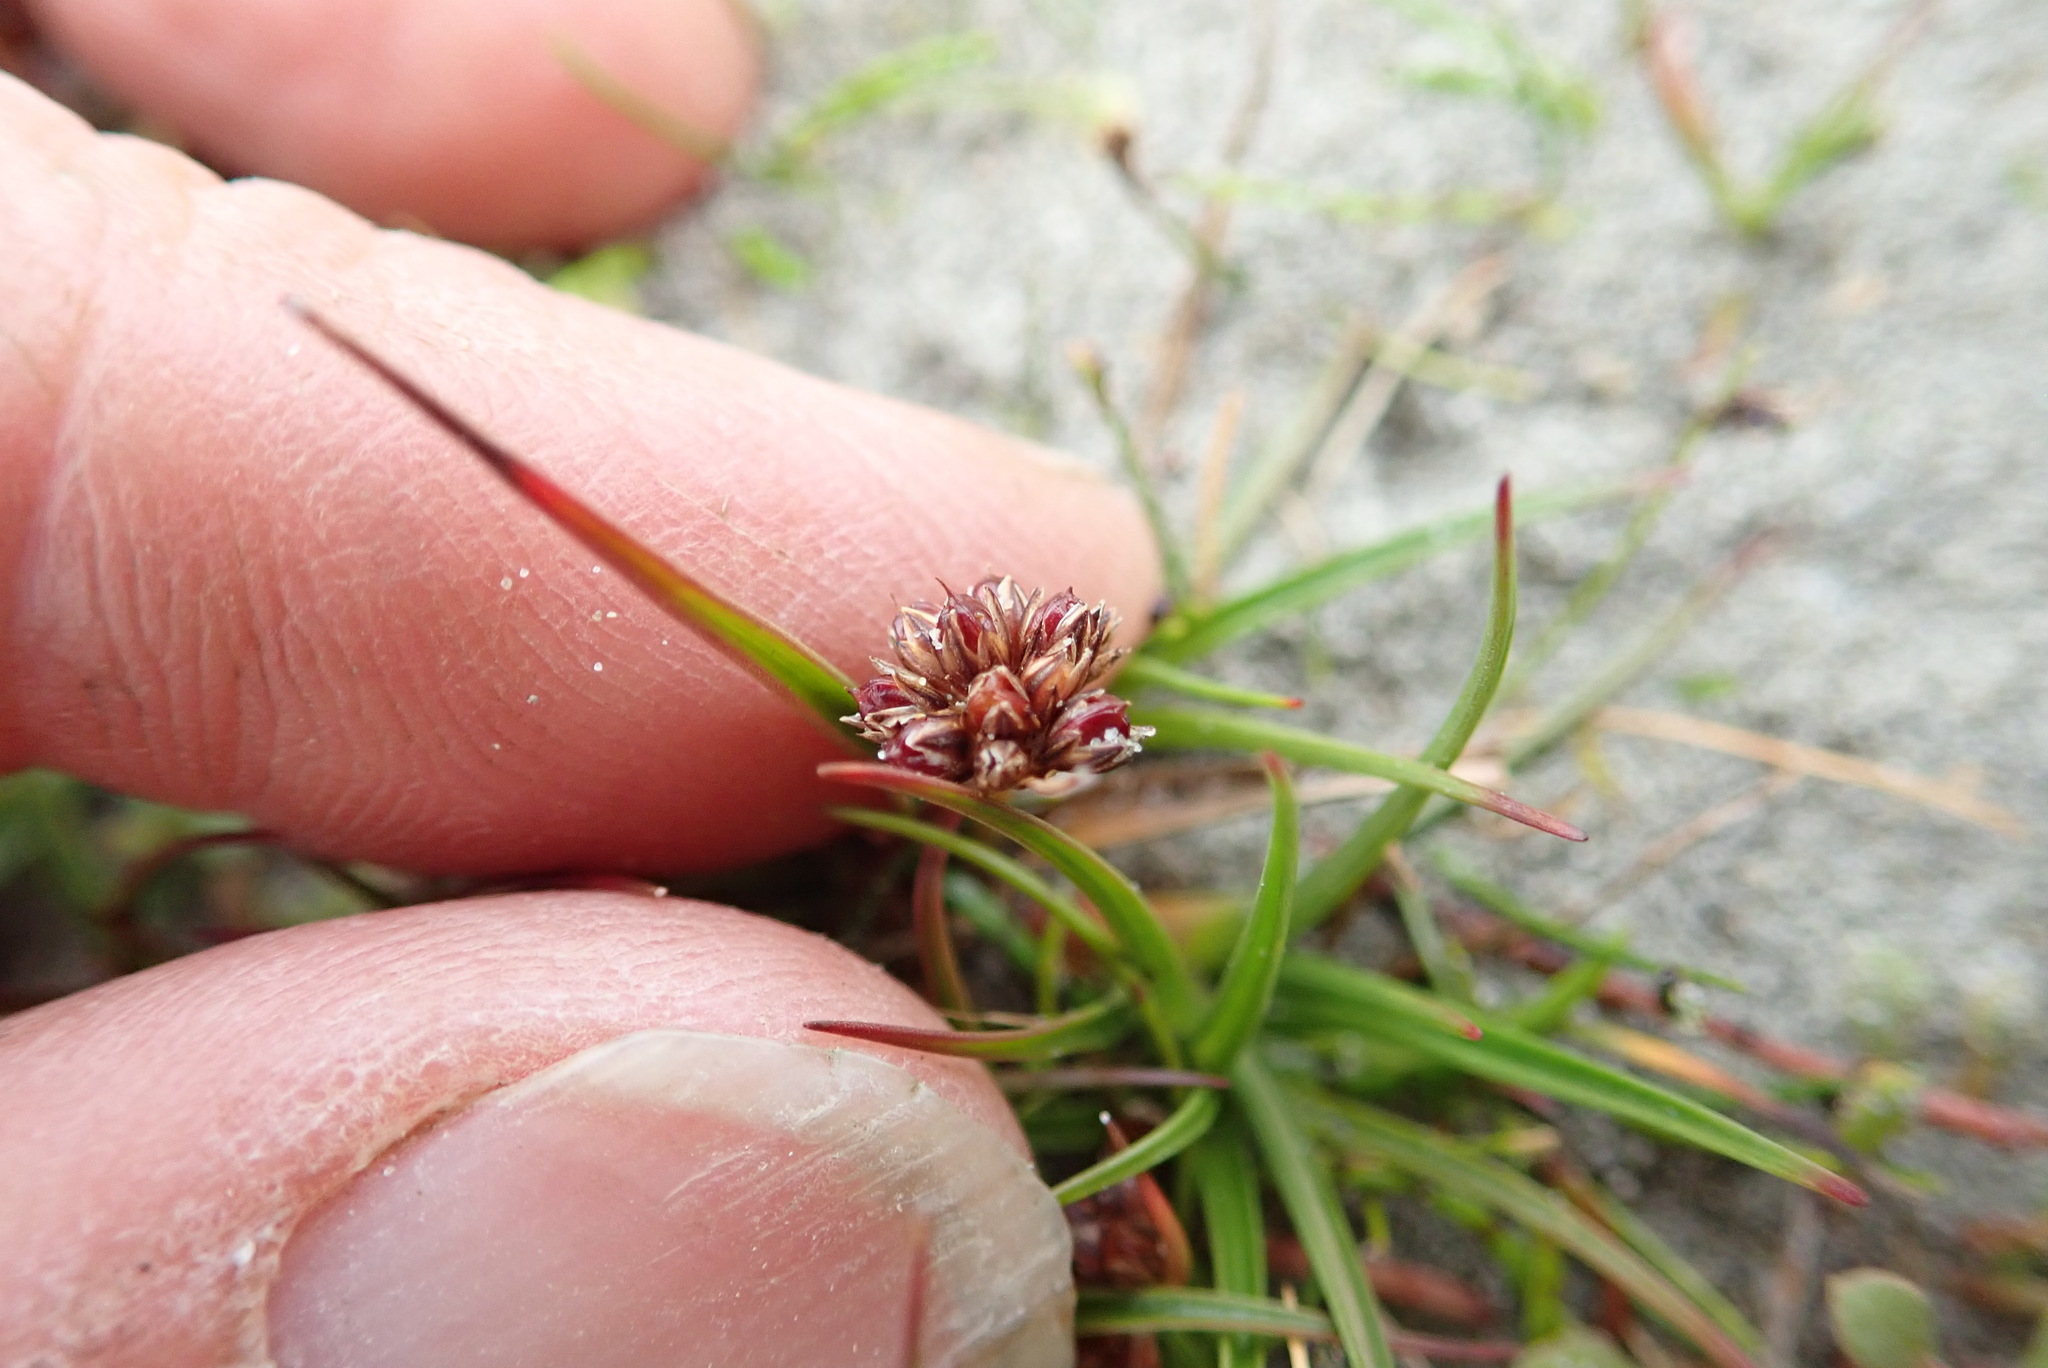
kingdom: Plantae
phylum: Tracheophyta
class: Liliopsida
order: Poales
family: Juncaceae
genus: Juncus
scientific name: Juncus caespiticius
